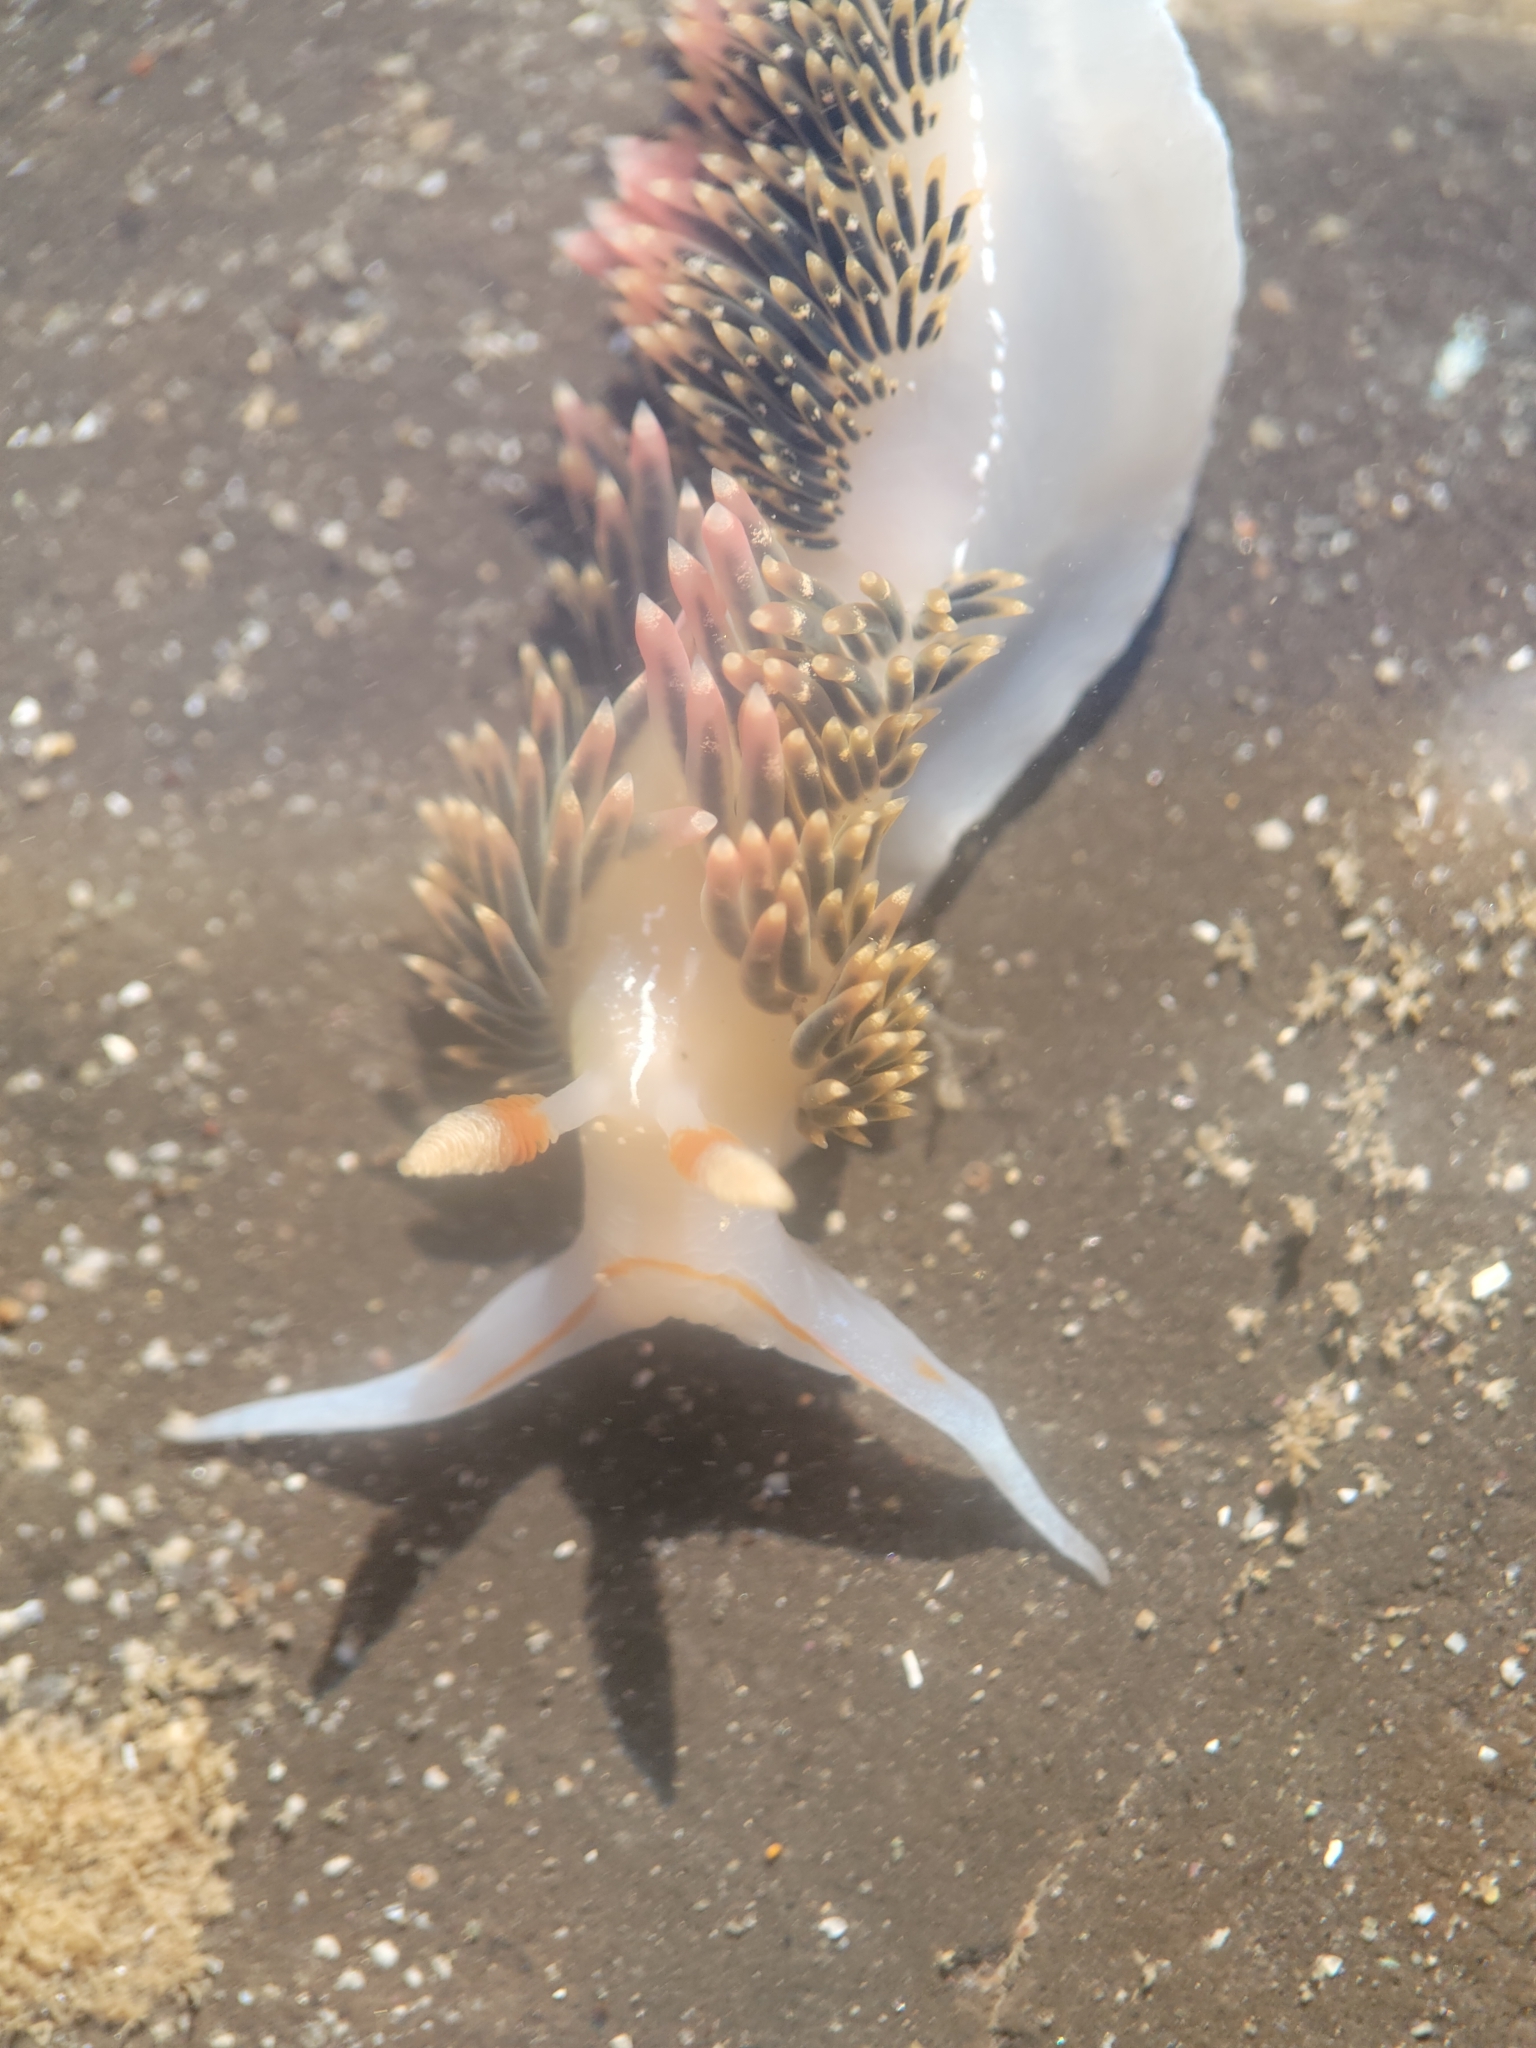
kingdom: Animalia
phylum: Mollusca
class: Gastropoda
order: Nudibranchia
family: Facelinidae
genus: Phidiana
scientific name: Phidiana hiltoni
